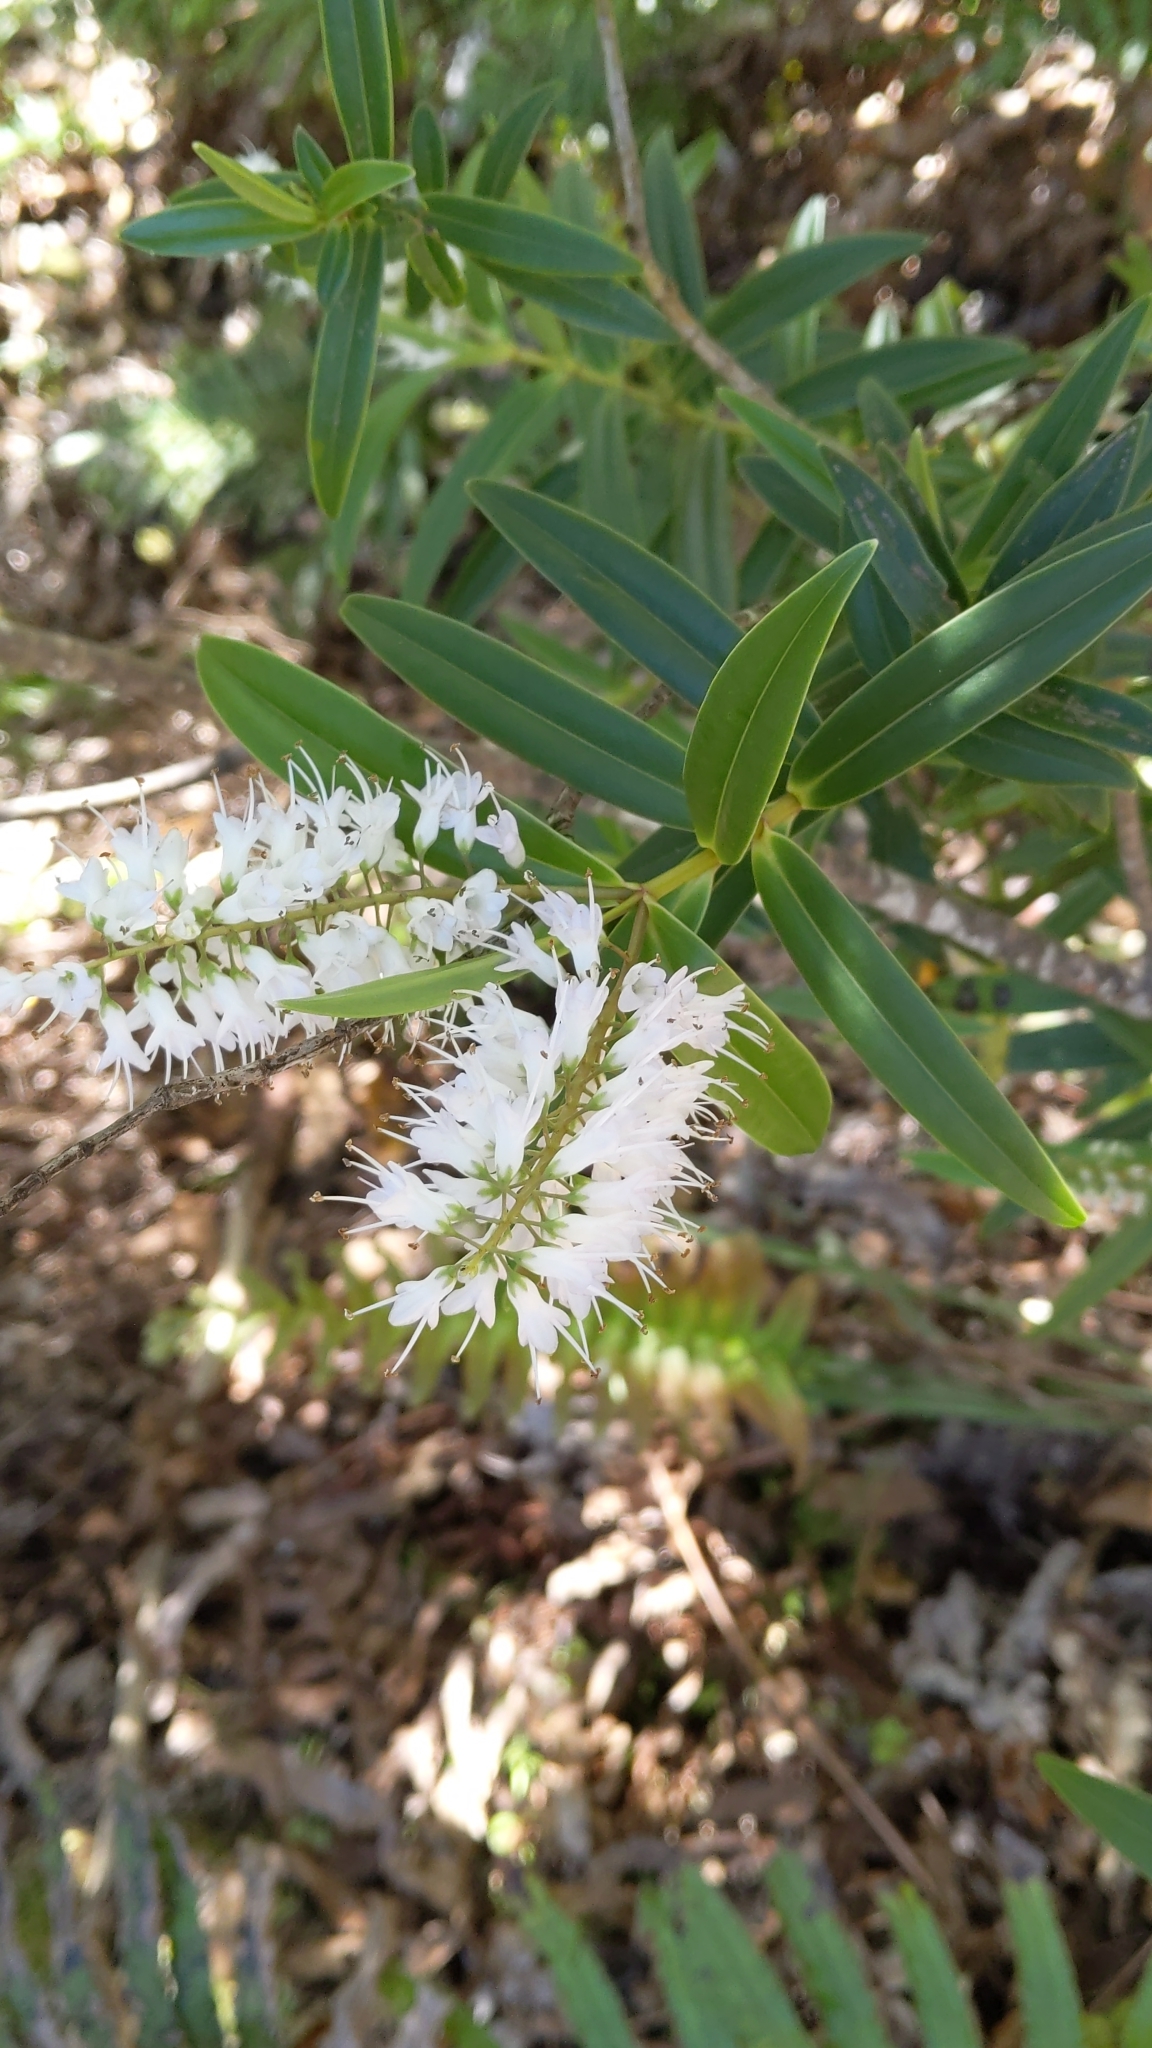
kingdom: Plantae
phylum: Tracheophyta
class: Magnoliopsida
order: Lamiales
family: Plantaginaceae
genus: Veronica
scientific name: Veronica macrocarpa
